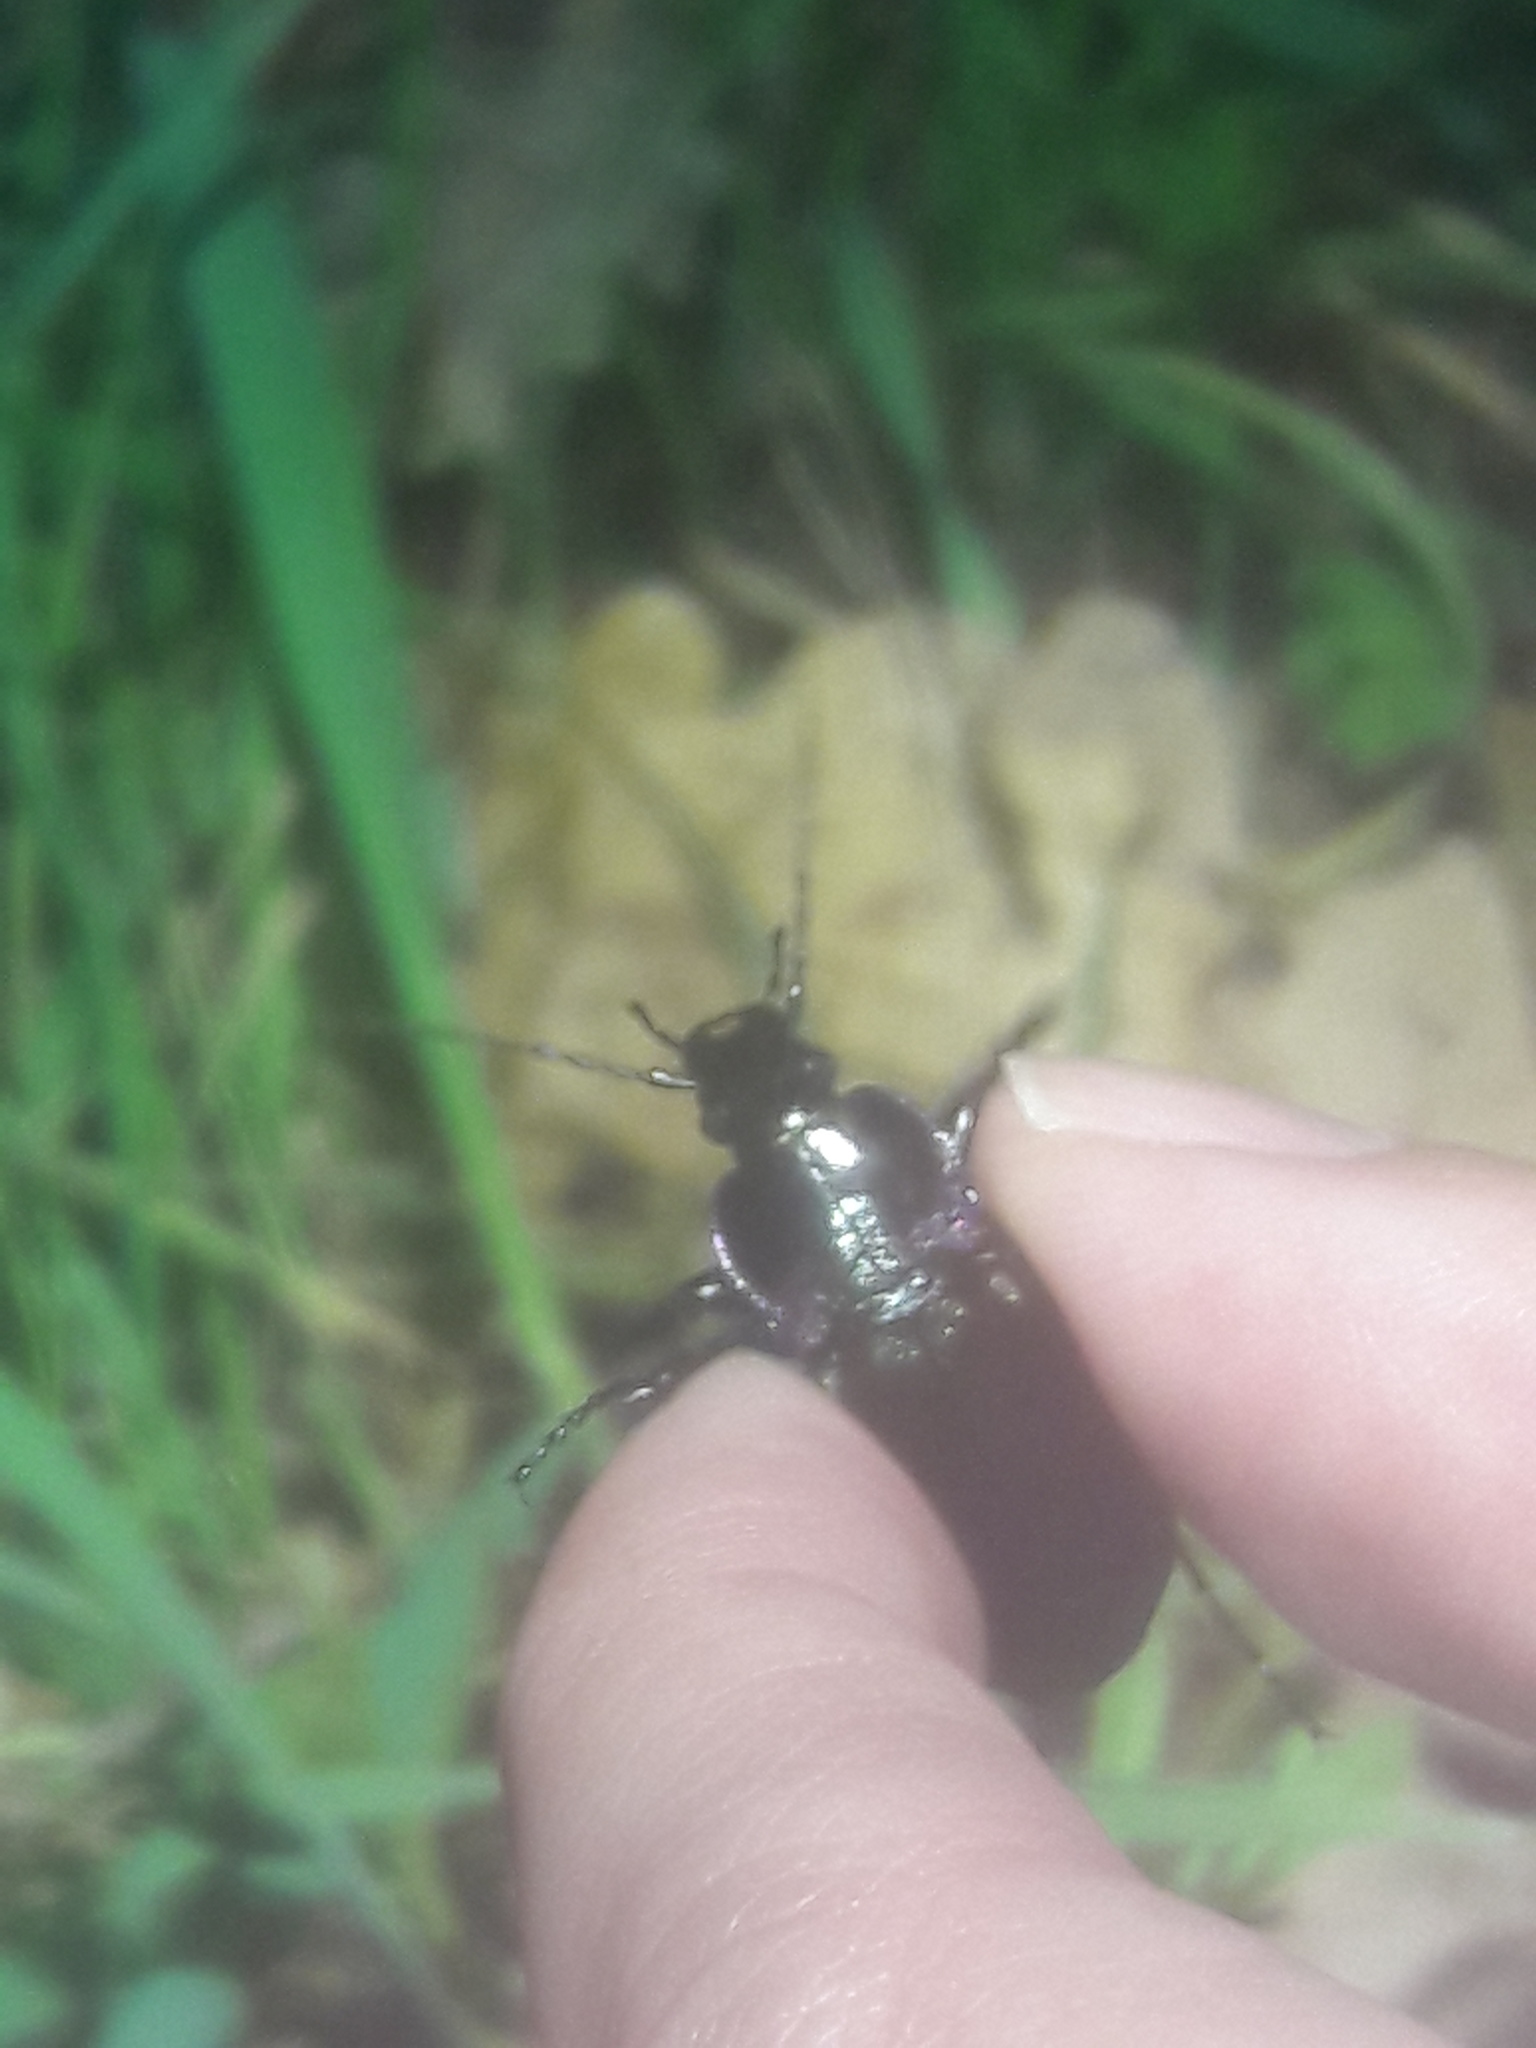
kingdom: Animalia
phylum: Arthropoda
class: Insecta
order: Coleoptera
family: Carabidae
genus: Carabus
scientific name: Carabus nemoralis
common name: European ground beetle
